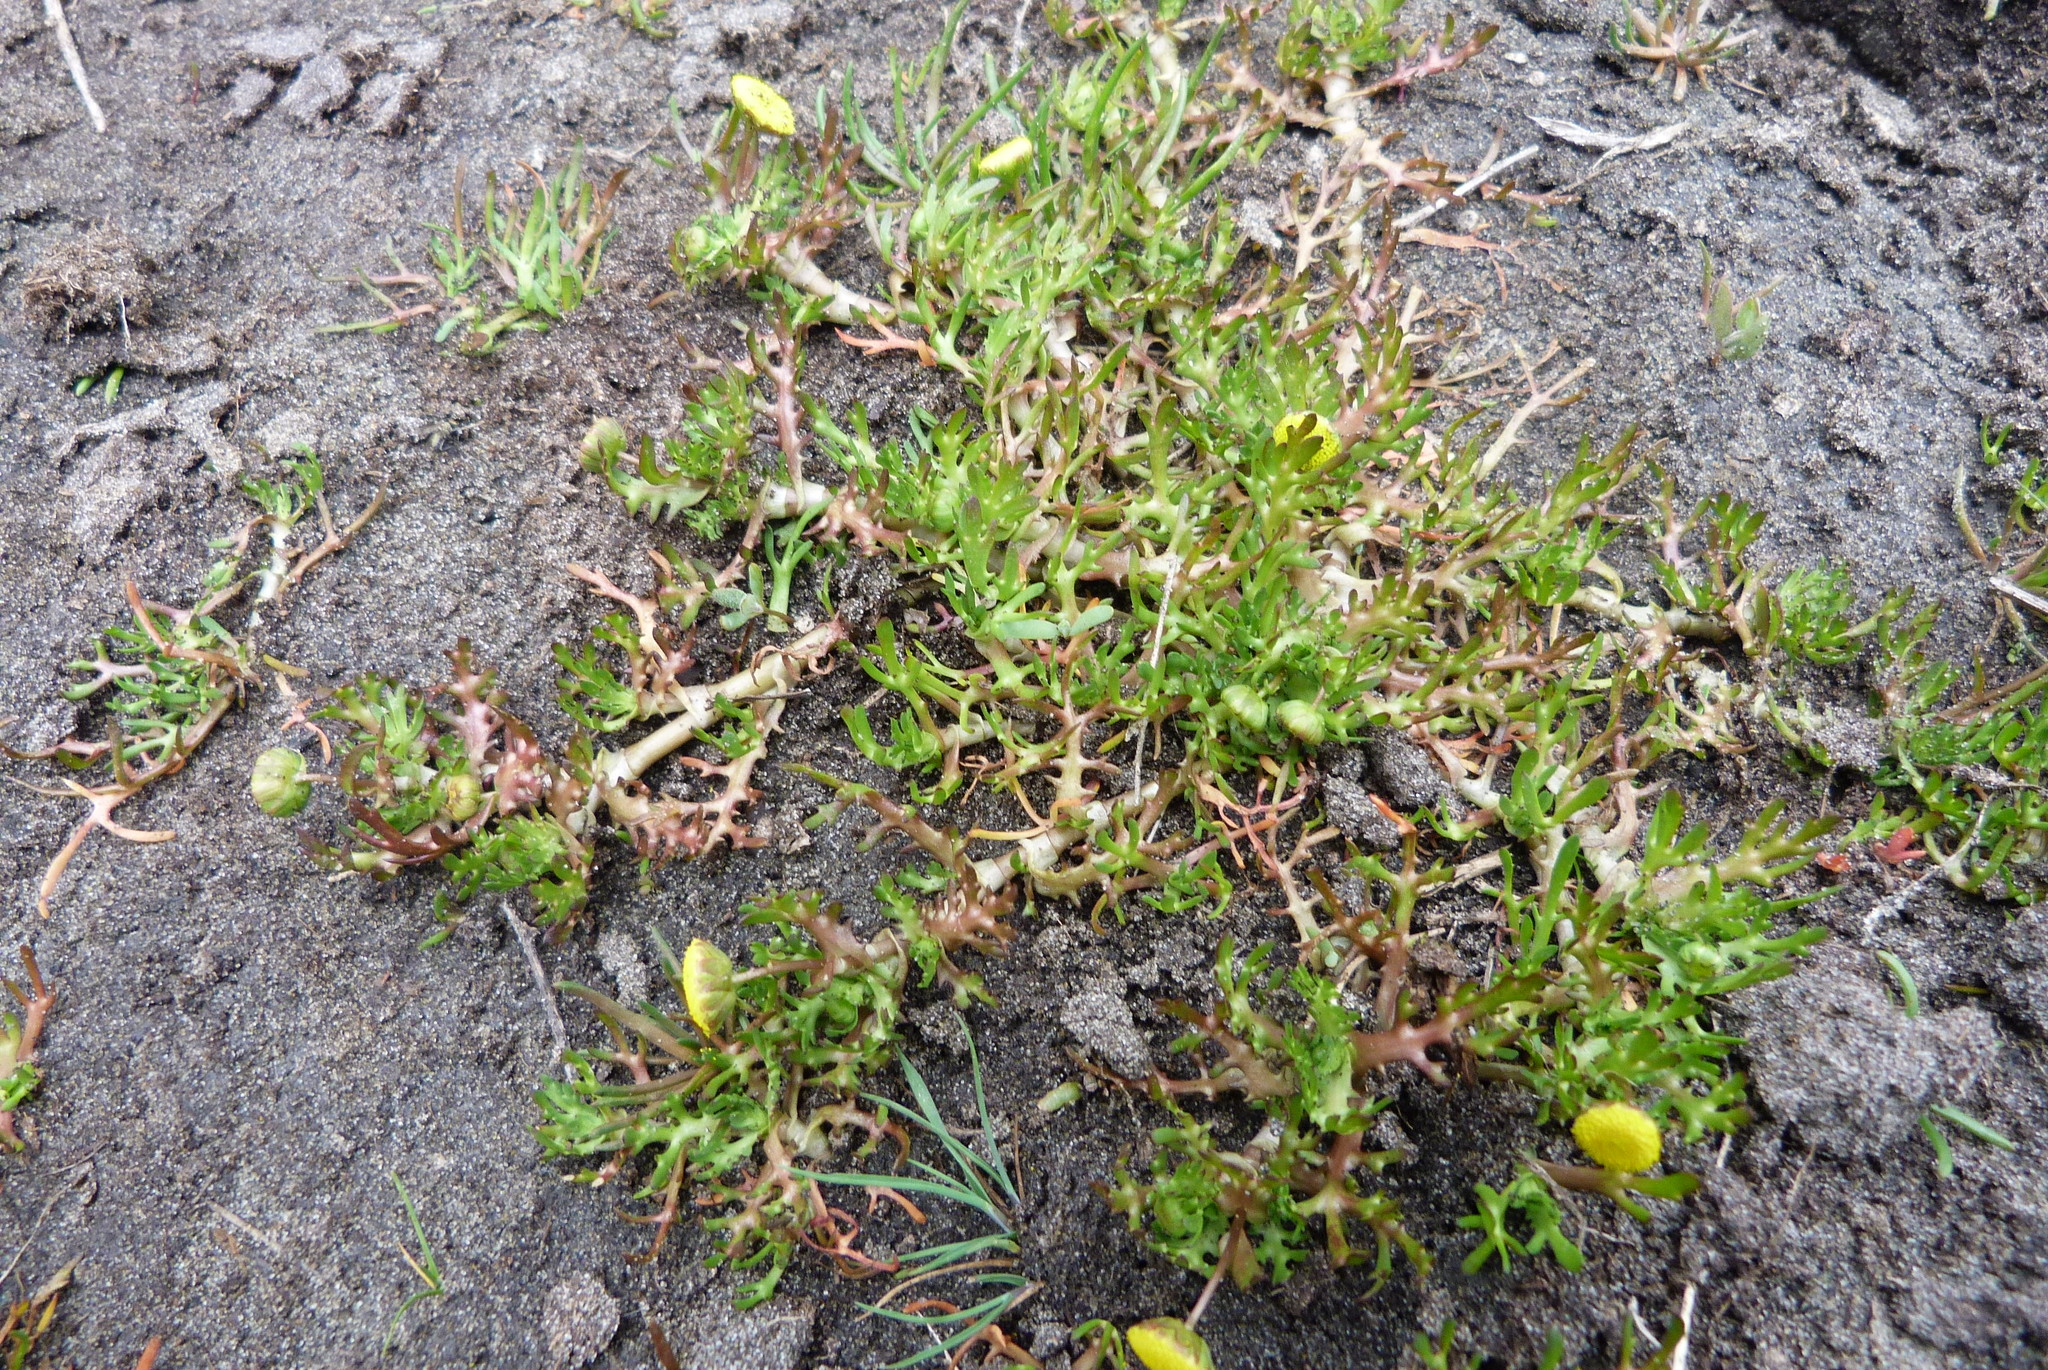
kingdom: Plantae
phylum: Tracheophyta
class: Magnoliopsida
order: Asterales
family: Asteraceae
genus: Cotula
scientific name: Cotula coronopifolia
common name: Buttonweed
